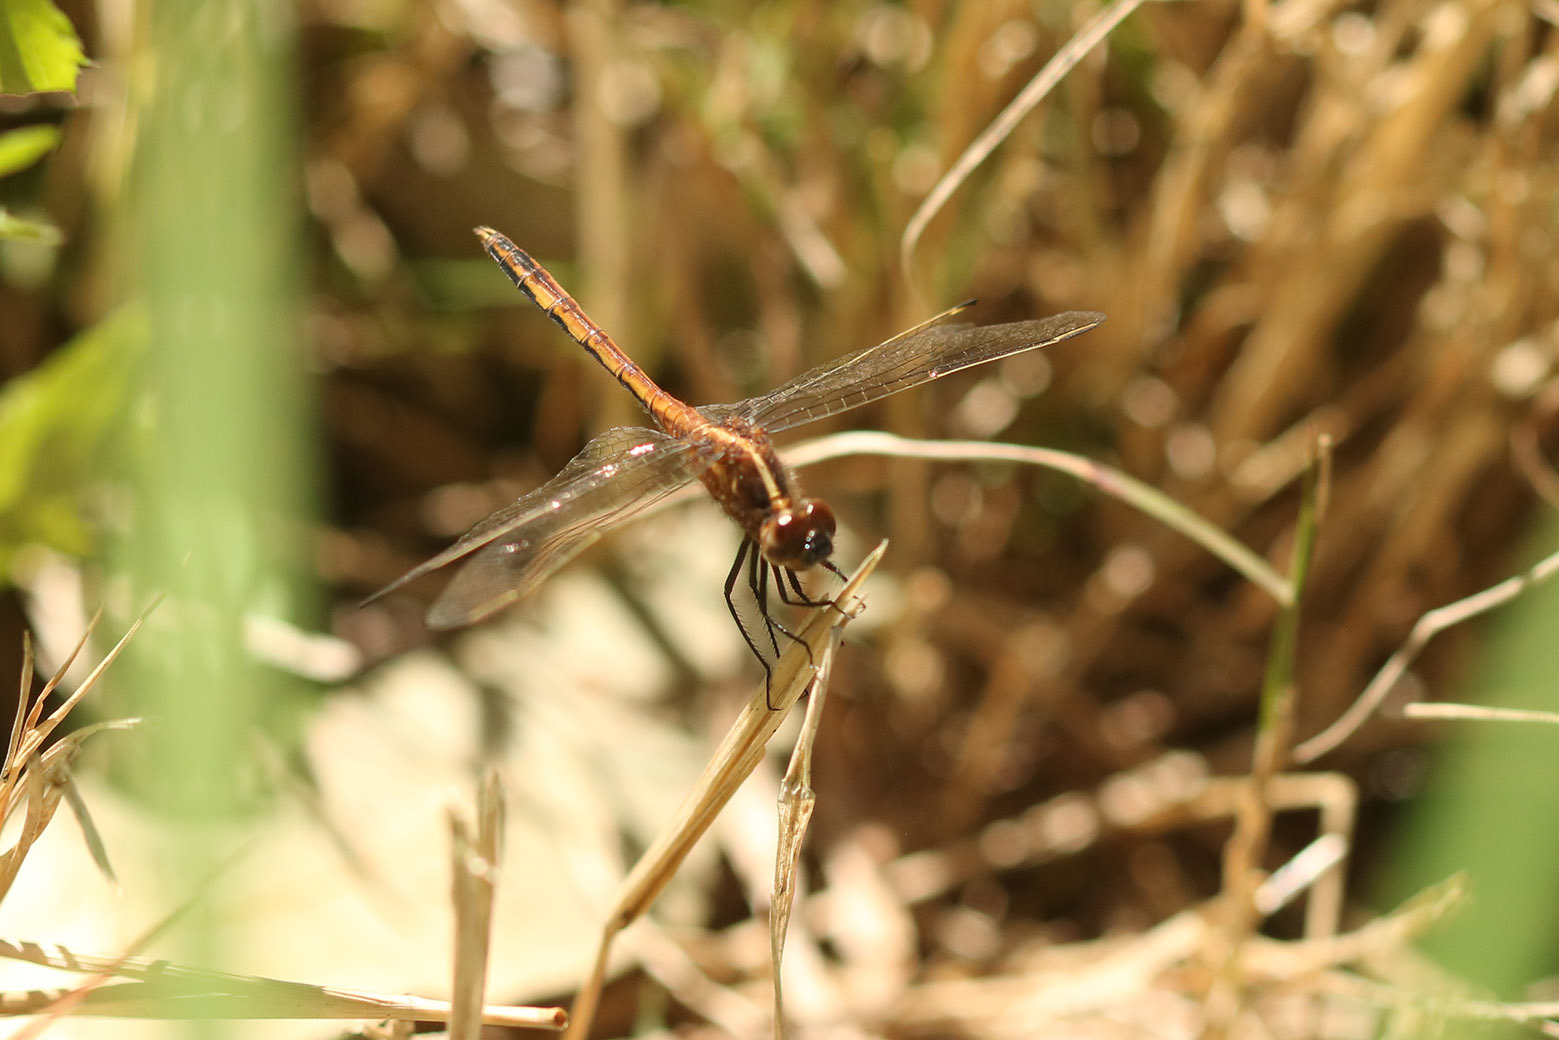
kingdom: Animalia
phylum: Arthropoda
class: Insecta
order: Odonata
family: Libellulidae
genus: Erythrodiplax
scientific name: Erythrodiplax nigricans
